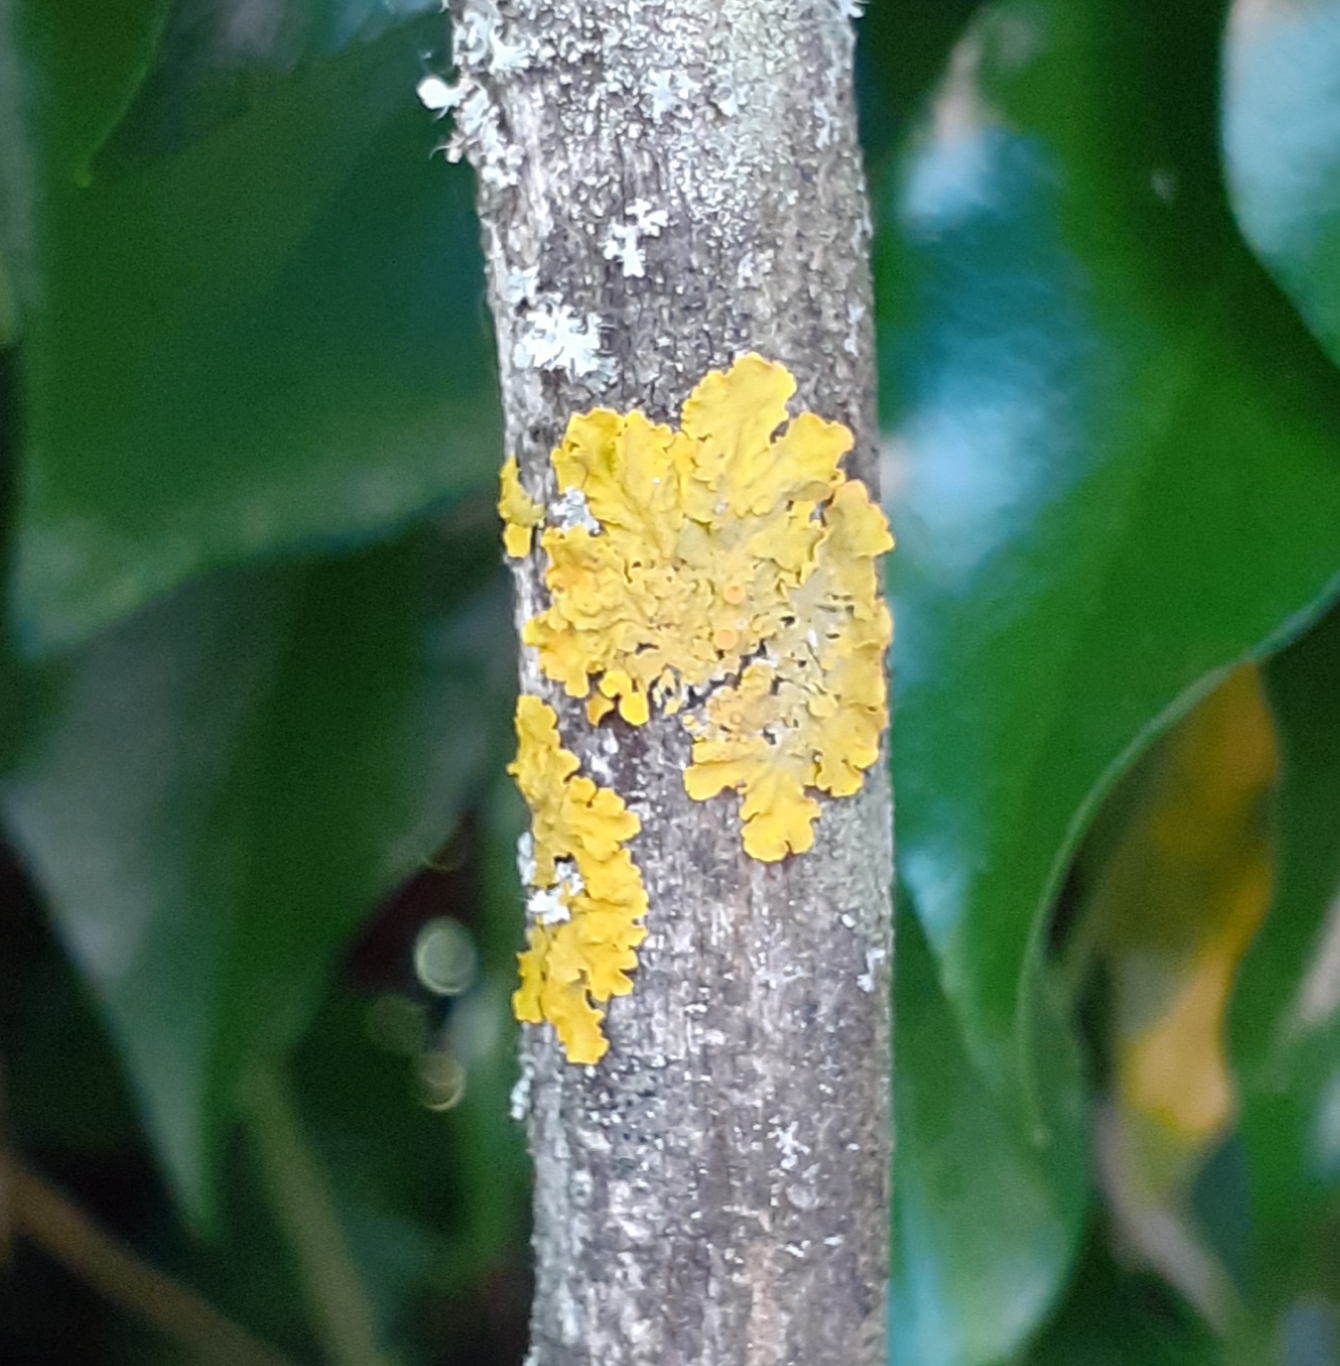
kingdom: Fungi
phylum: Ascomycota
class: Lecanoromycetes
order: Teloschistales
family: Teloschistaceae
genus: Xanthoria
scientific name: Xanthoria parietina
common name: Common orange lichen
